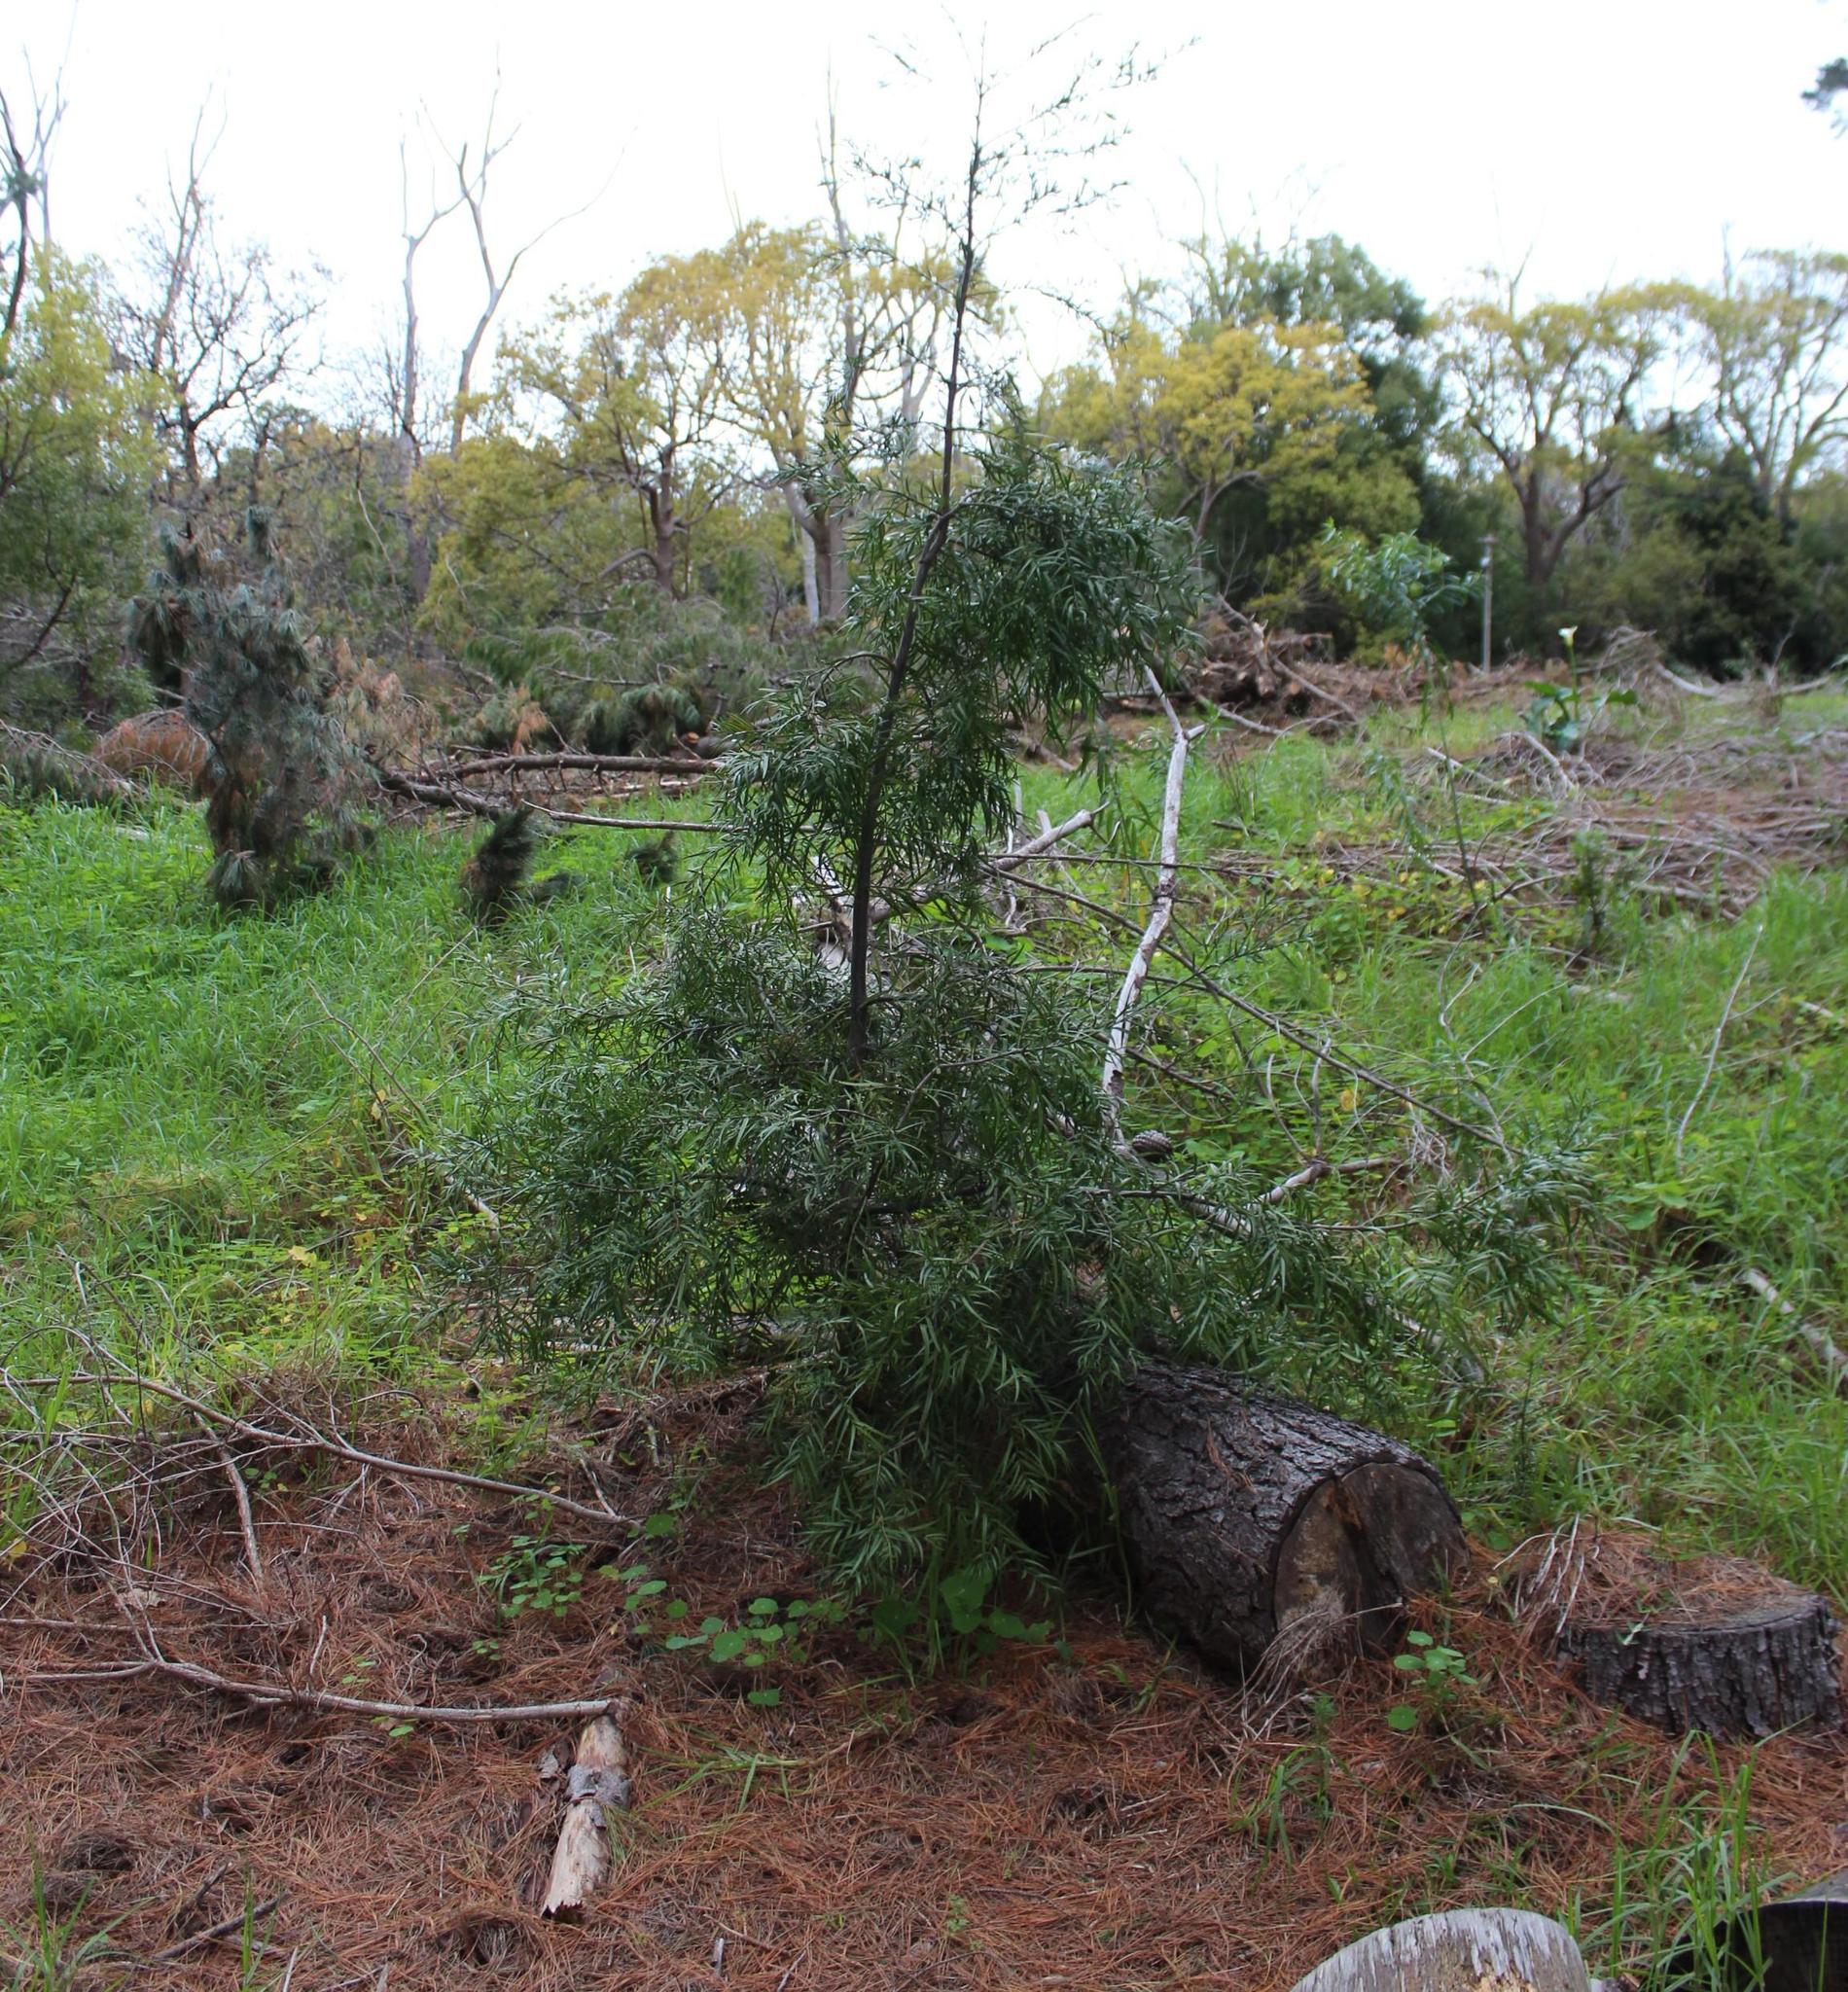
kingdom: Plantae
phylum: Tracheophyta
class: Pinopsida
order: Pinales
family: Podocarpaceae
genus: Afrocarpus
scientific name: Afrocarpus falcatus
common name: Bastard yellowwood
